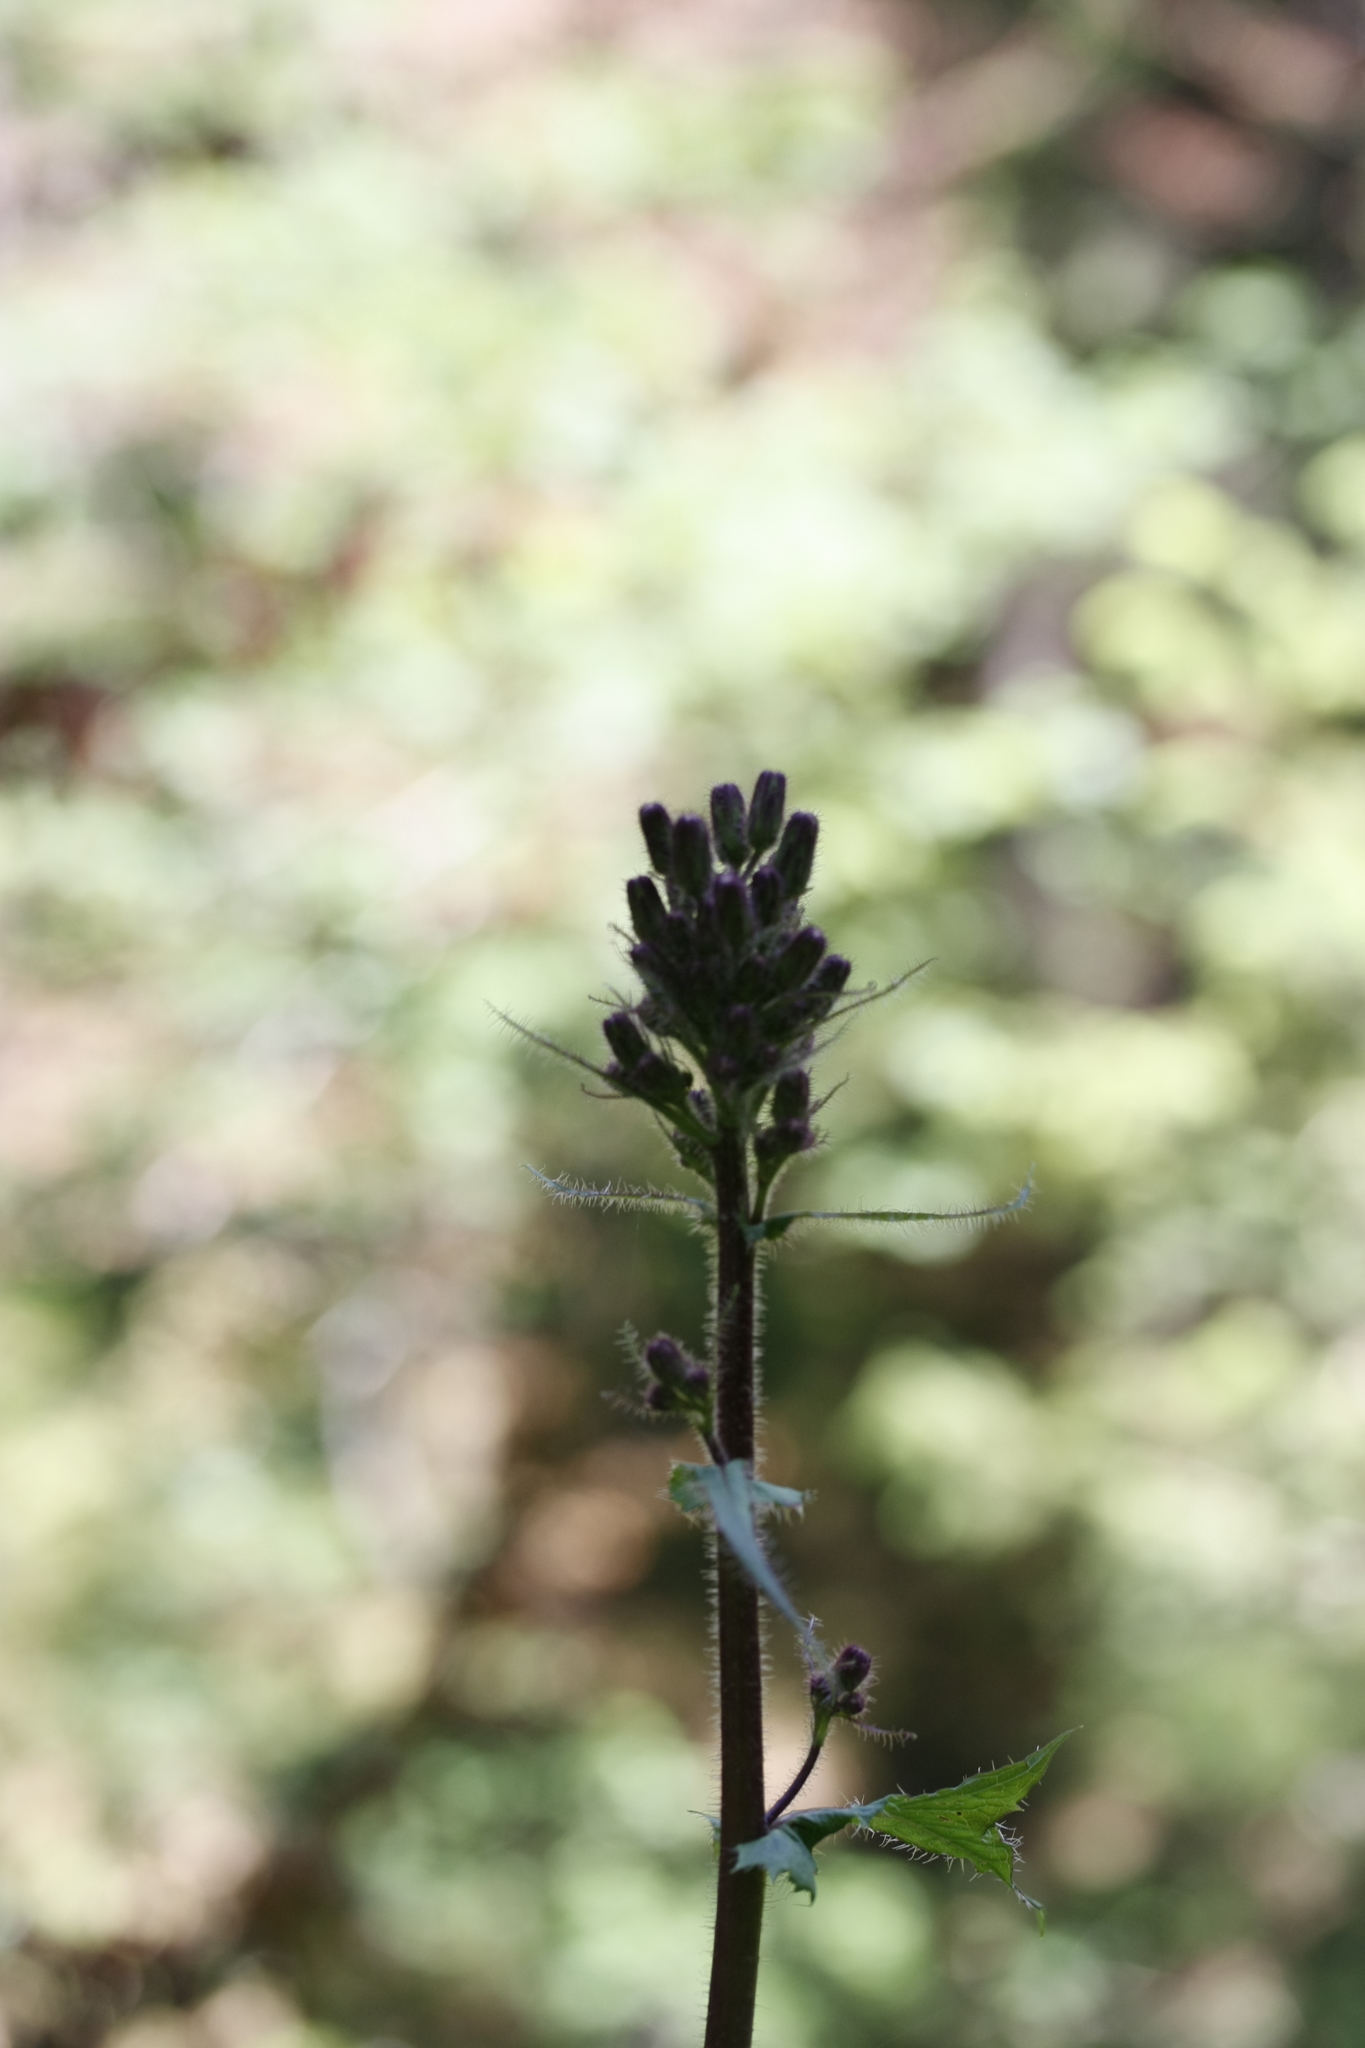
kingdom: Plantae
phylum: Tracheophyta
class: Magnoliopsida
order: Asterales
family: Asteraceae
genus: Cicerbita
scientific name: Cicerbita alpina
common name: Alpine blue-sow-thistle
